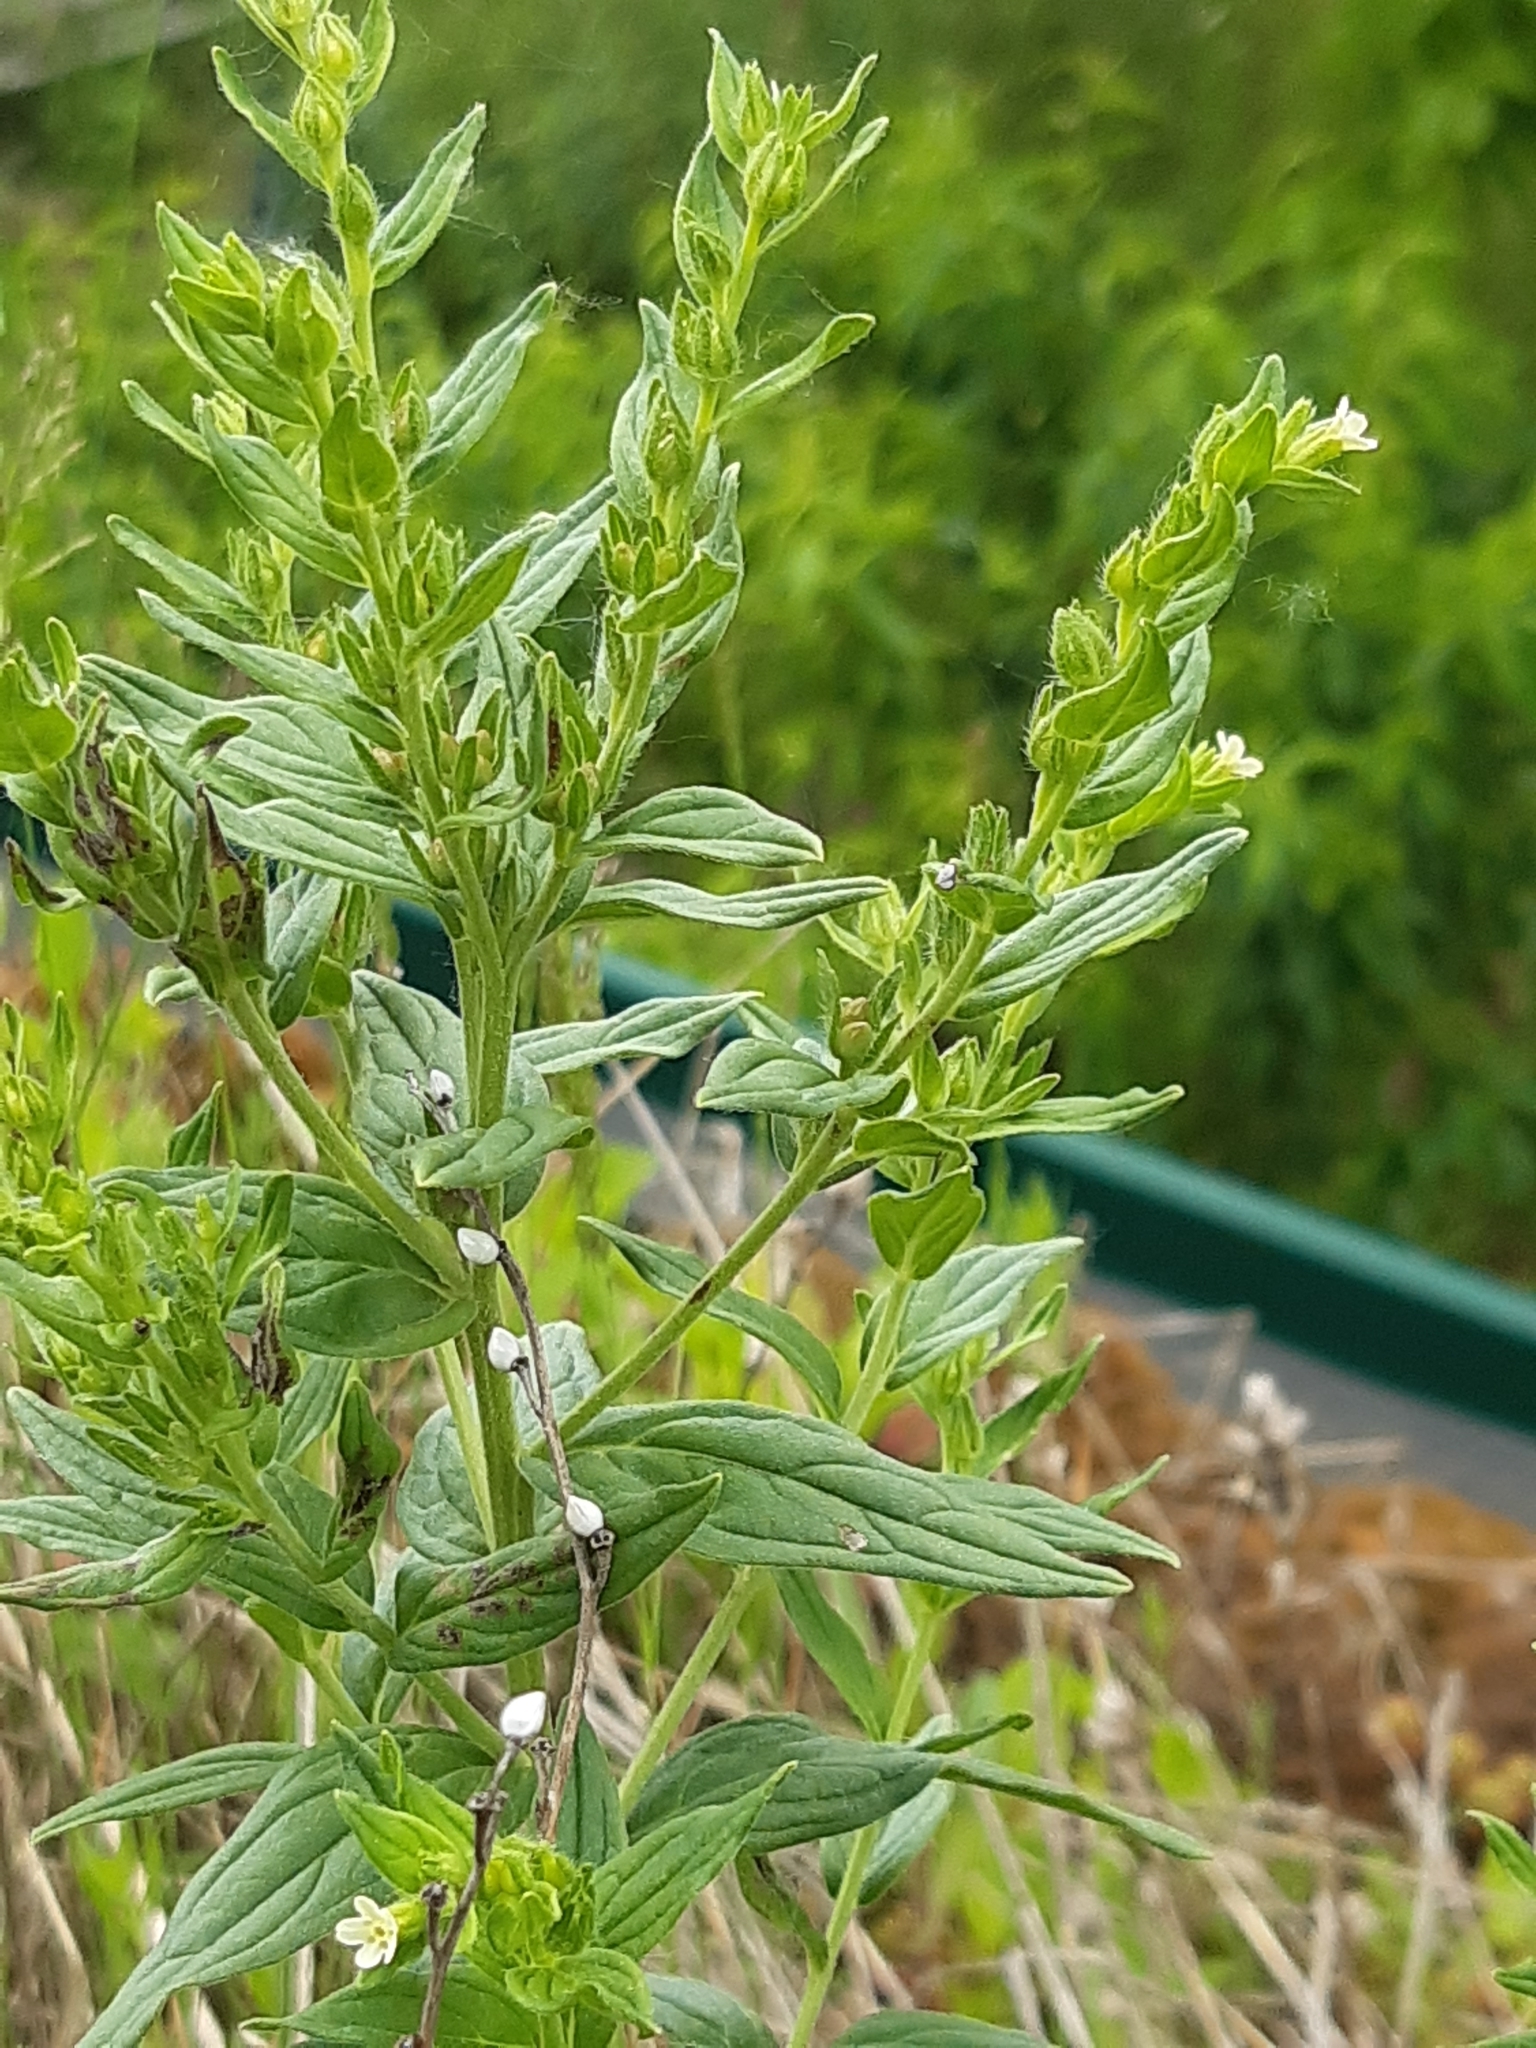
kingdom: Plantae
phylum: Tracheophyta
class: Magnoliopsida
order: Boraginales
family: Boraginaceae
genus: Lithospermum
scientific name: Lithospermum officinale
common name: Common gromwell
